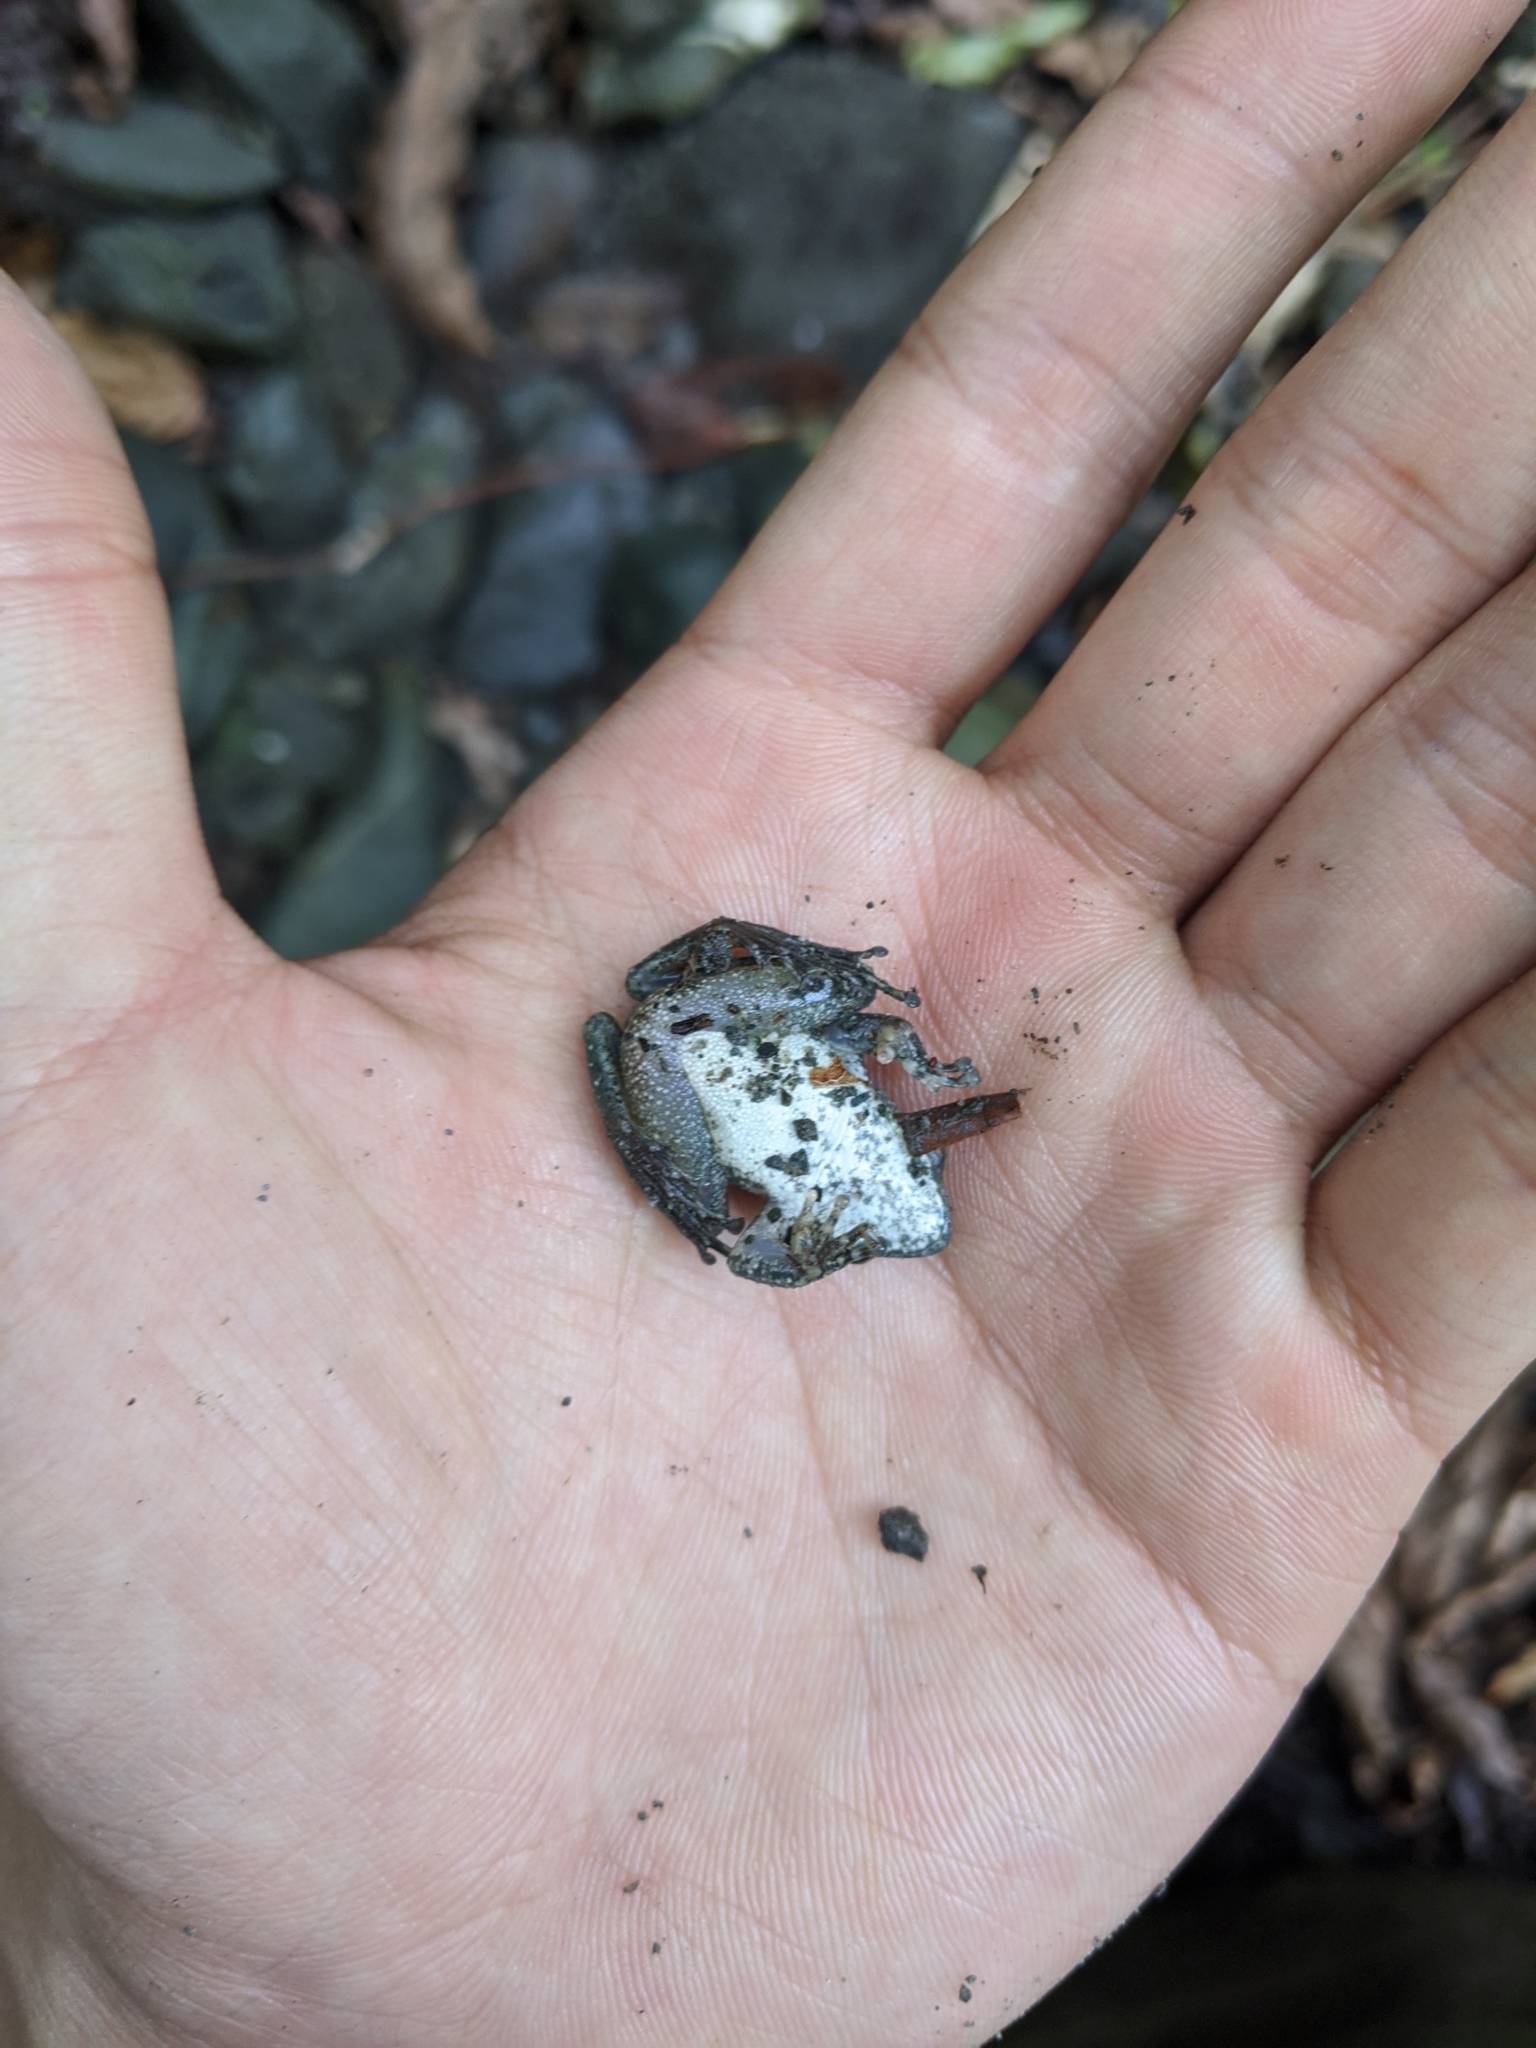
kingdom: Animalia
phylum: Chordata
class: Amphibia
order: Anura
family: Rhacophoridae
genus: Buergeria
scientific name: Buergeria otai
